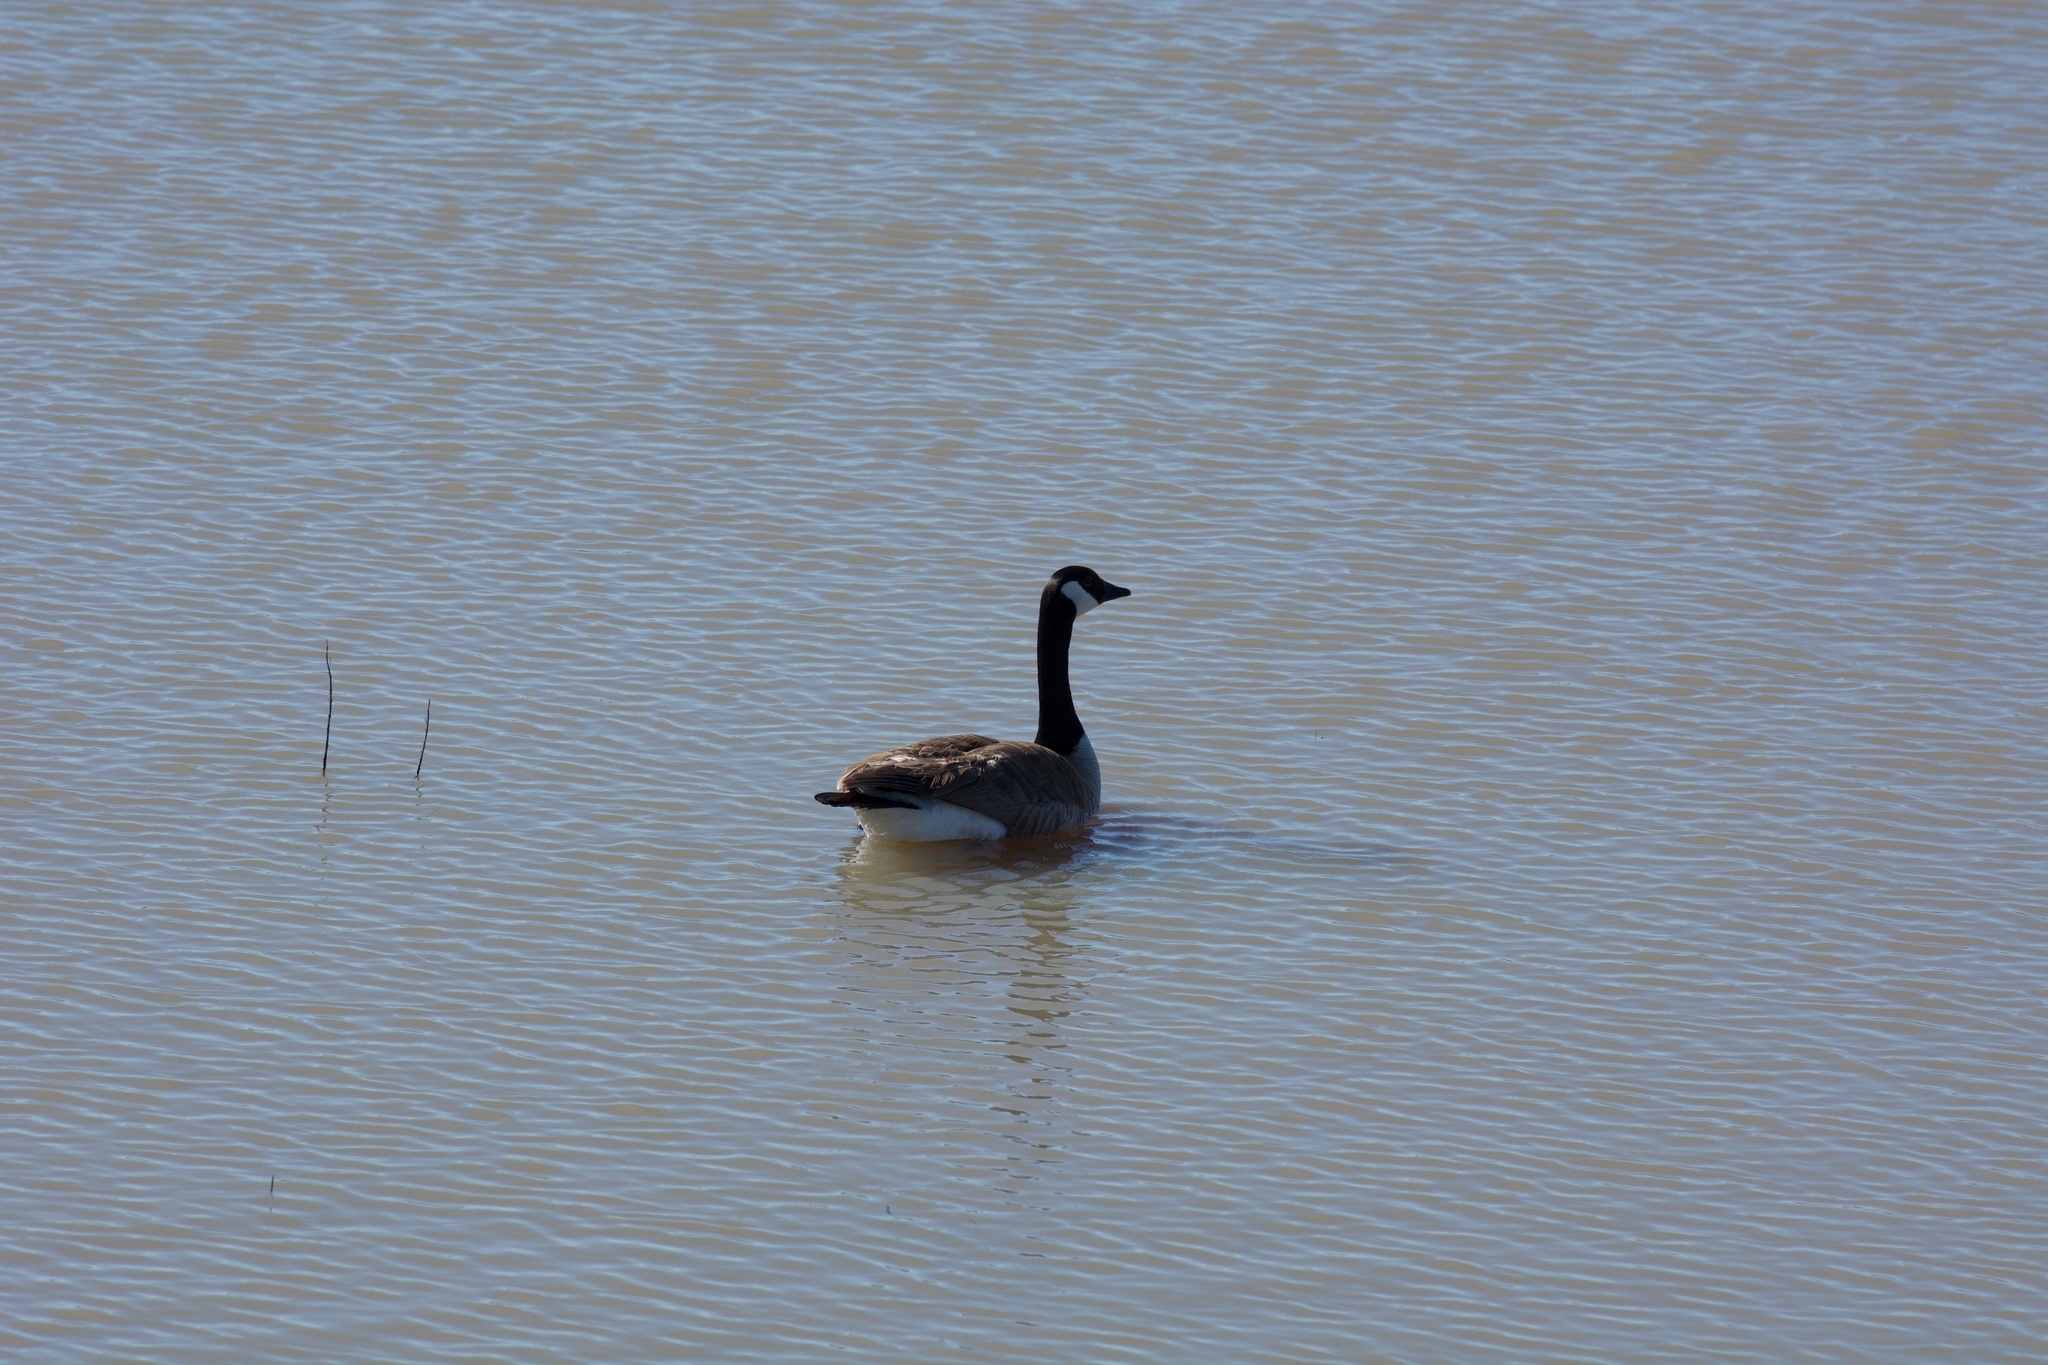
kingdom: Animalia
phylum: Chordata
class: Aves
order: Anseriformes
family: Anatidae
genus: Branta
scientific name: Branta canadensis
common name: Canada goose
